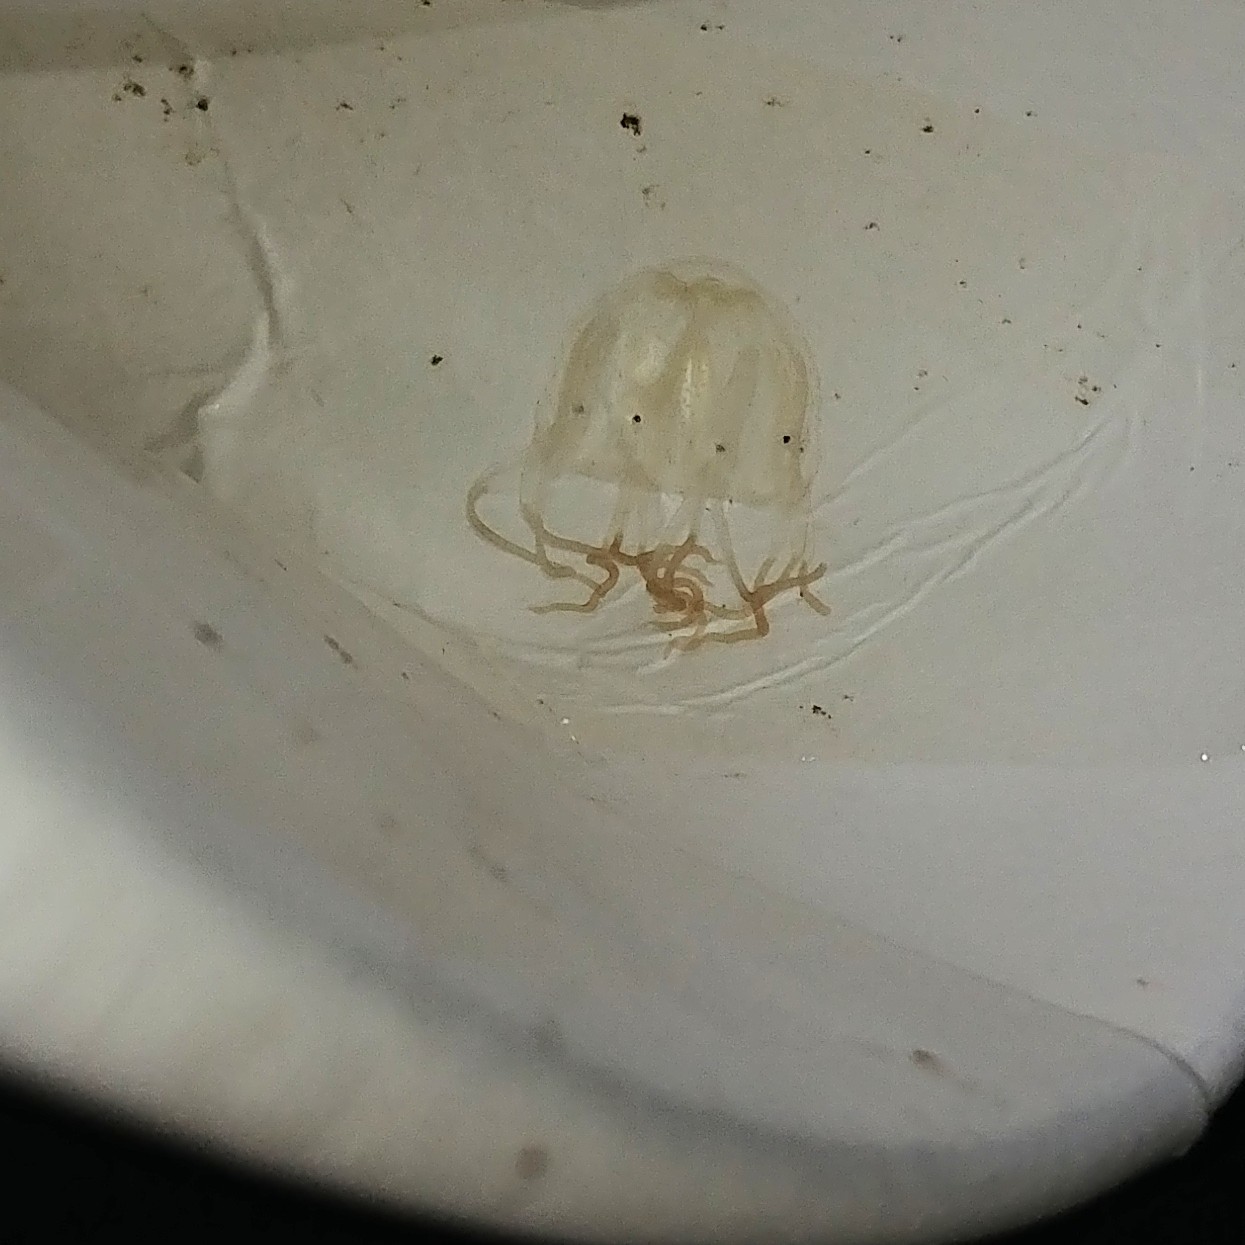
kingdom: Animalia
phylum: Cnidaria
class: Cubozoa
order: Carybdeida
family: Tripedaliidae
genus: Tripedalia
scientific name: Tripedalia cystophora
